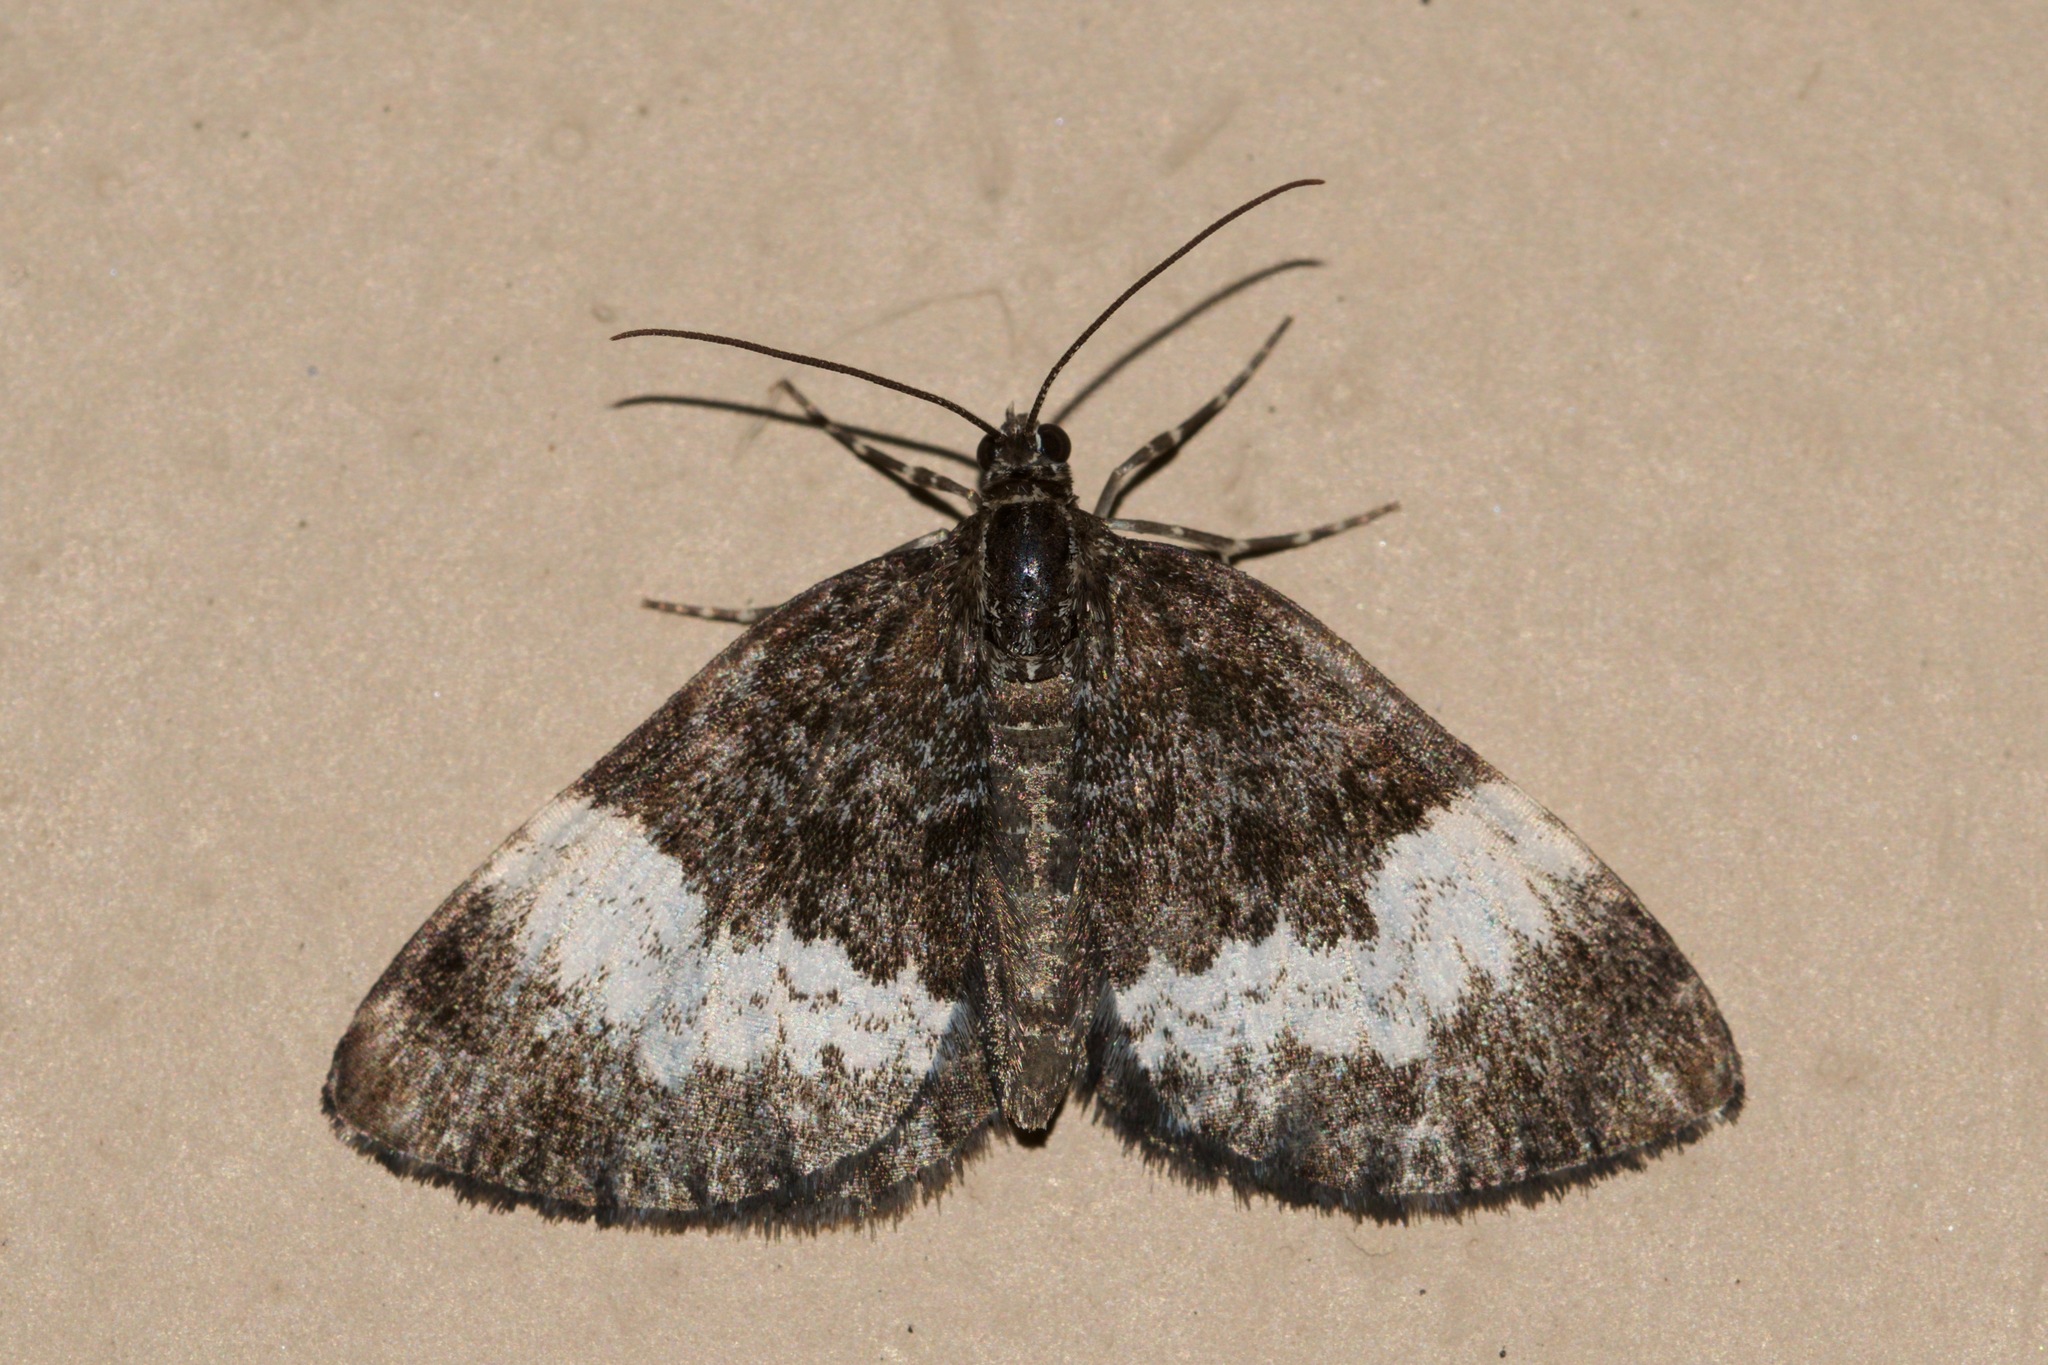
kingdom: Animalia
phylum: Arthropoda
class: Insecta
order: Lepidoptera
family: Geometridae
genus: Spargania
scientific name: Spargania luctuata
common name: White-banded carpet
